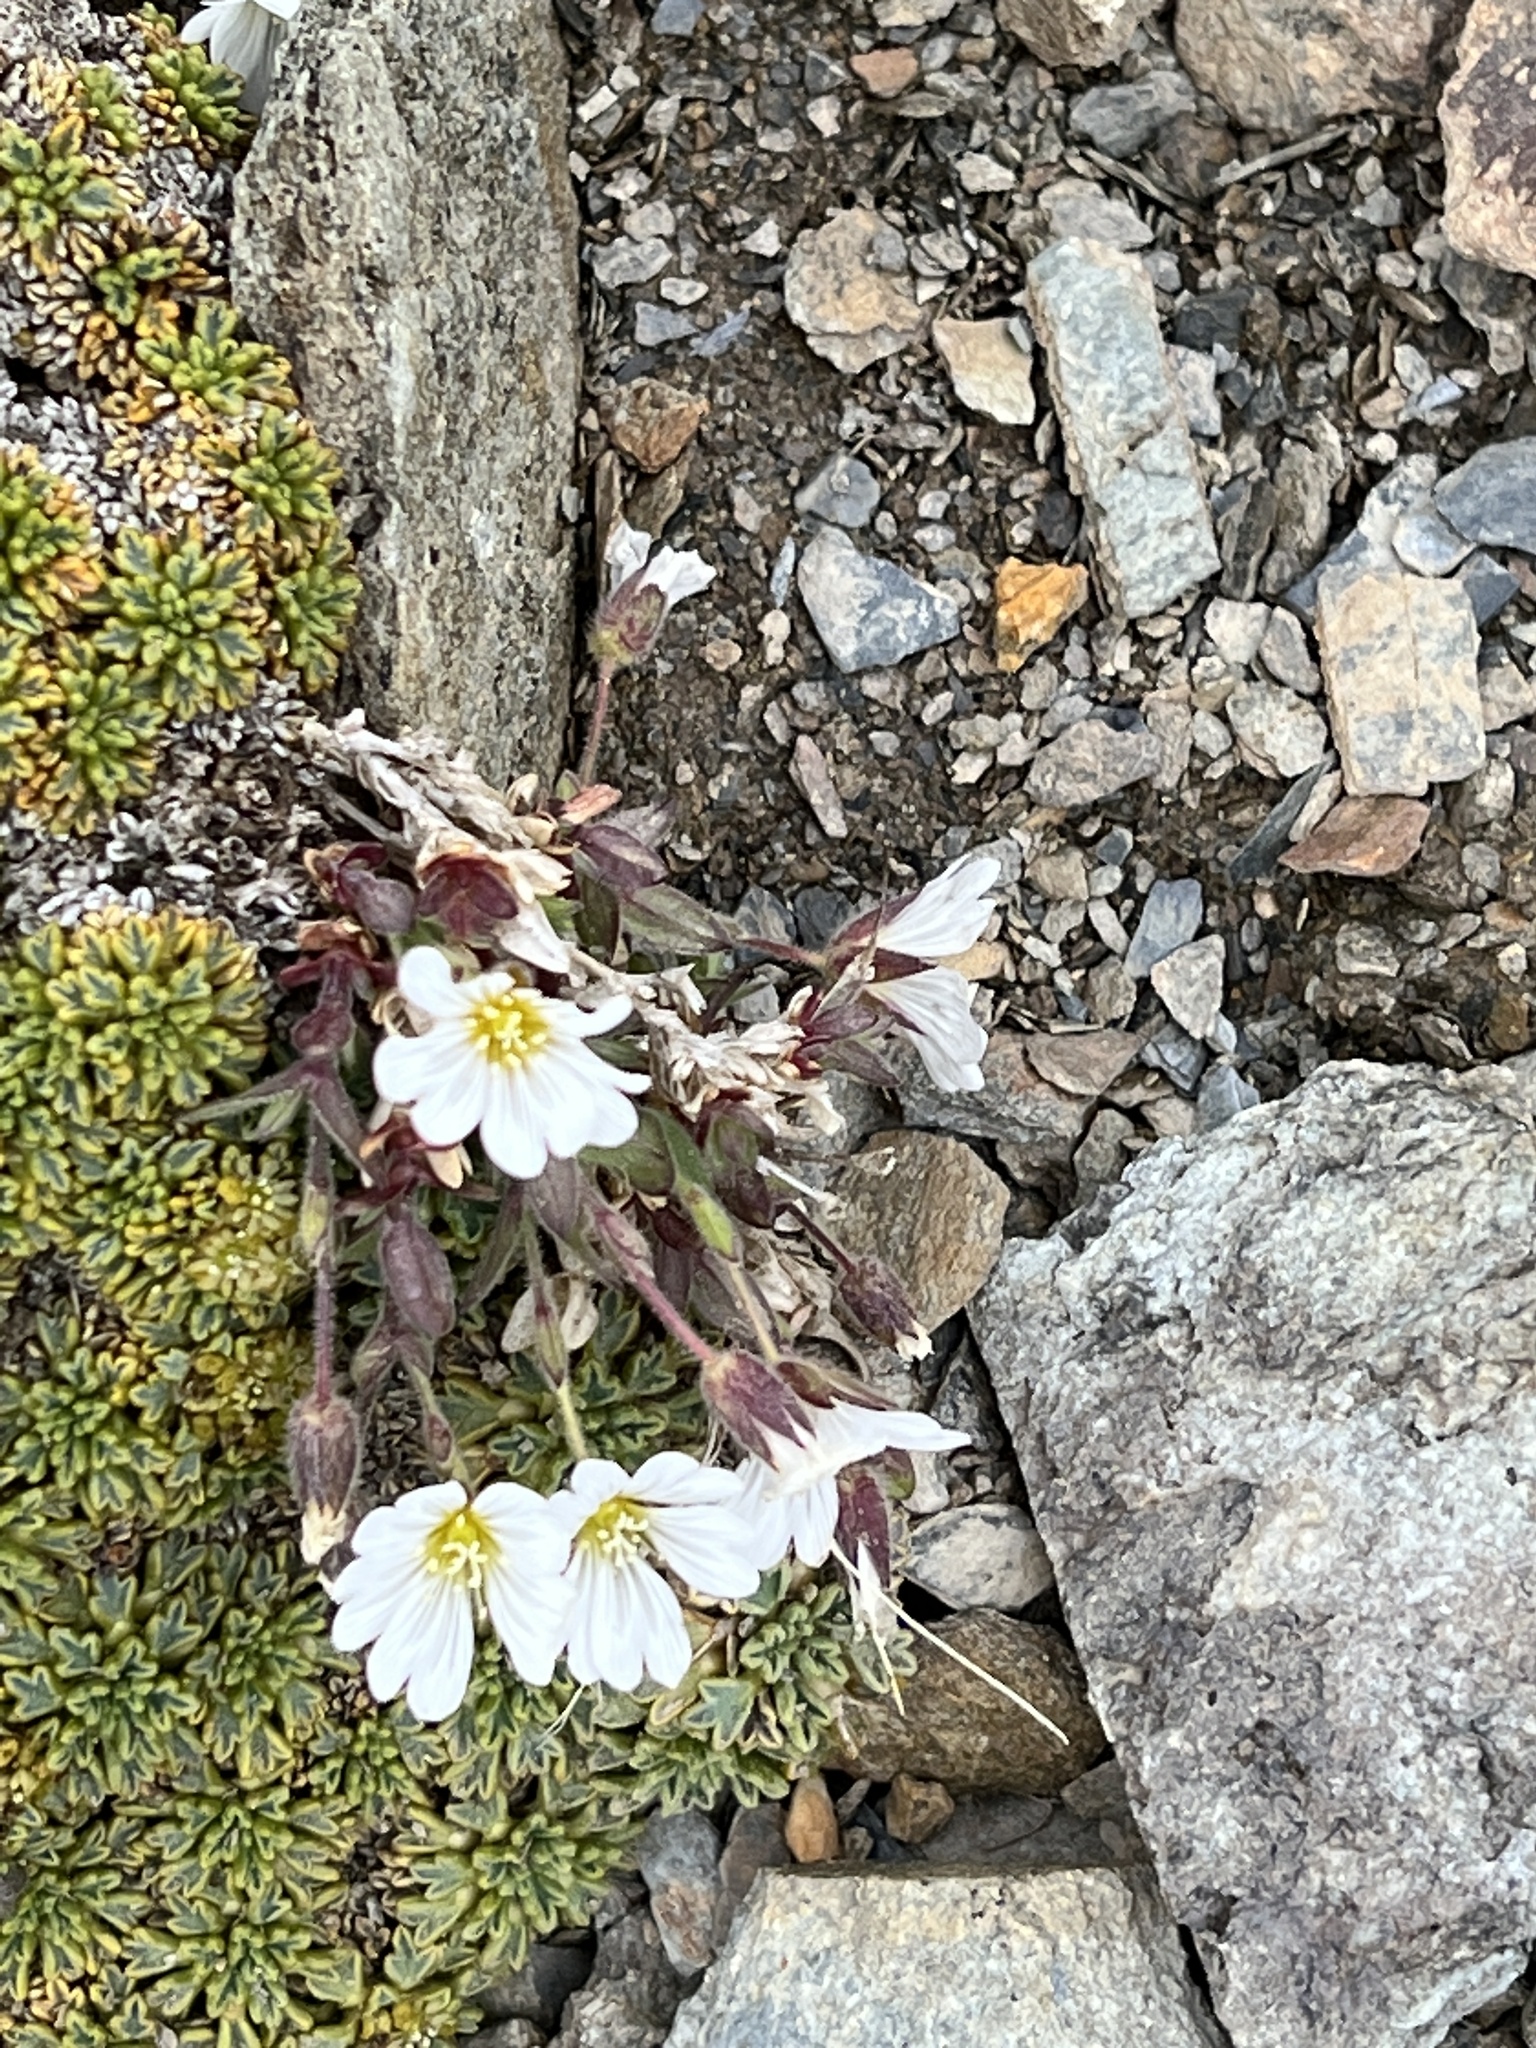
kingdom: Plantae
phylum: Tracheophyta
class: Magnoliopsida
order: Caryophyllales
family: Caryophyllaceae
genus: Cerastium
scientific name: Cerastium arvense
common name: Field mouse-ear
